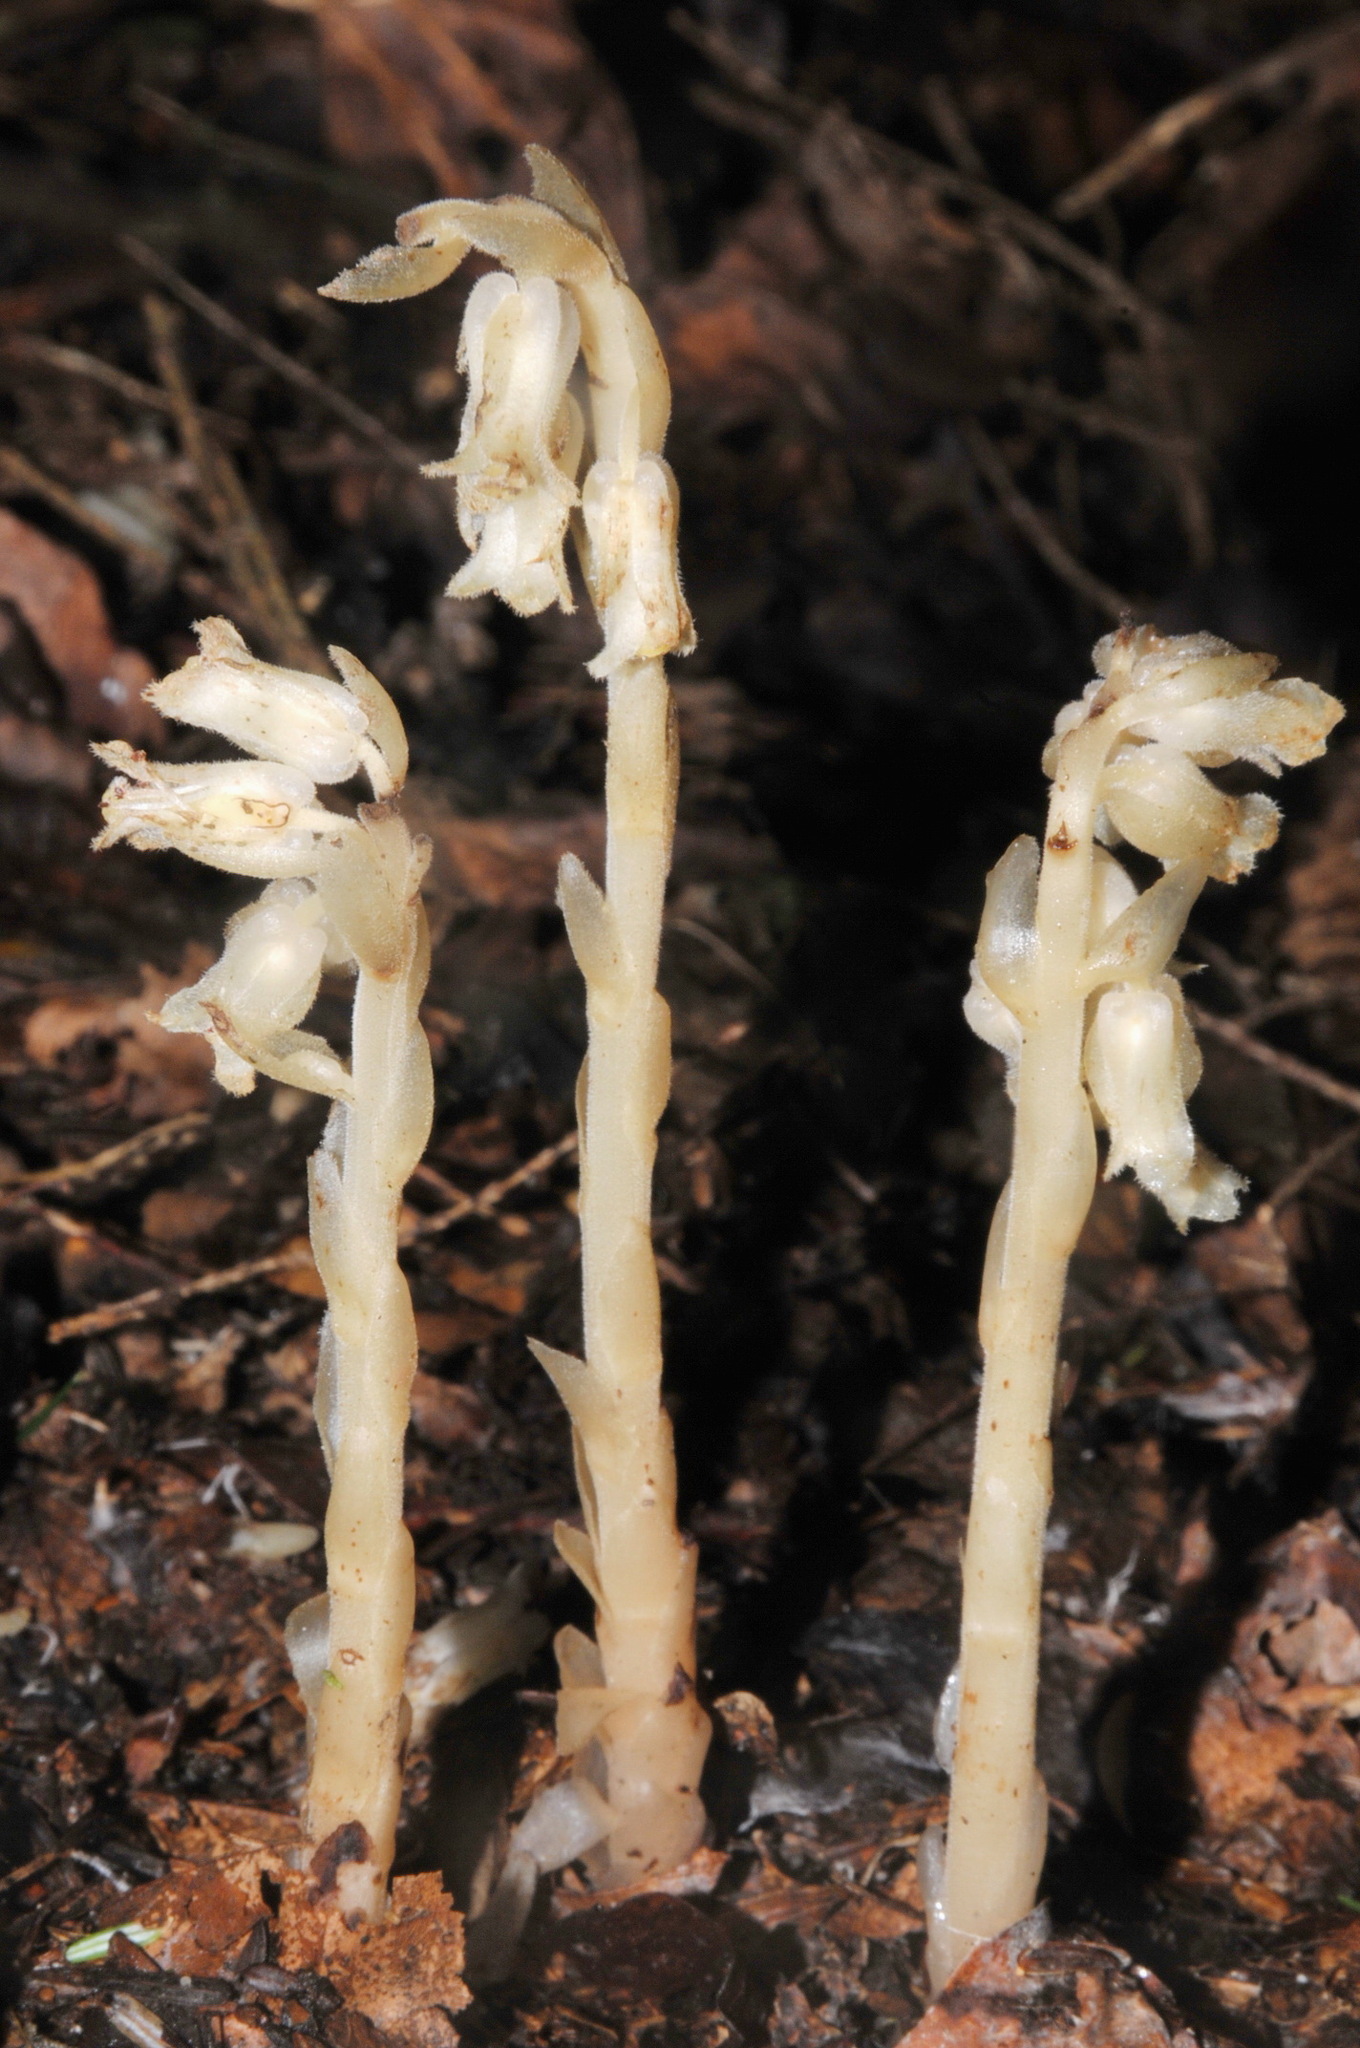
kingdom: Plantae
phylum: Tracheophyta
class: Magnoliopsida
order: Ericales
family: Ericaceae
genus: Hypopitys
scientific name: Hypopitys monotropa
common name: Yellow bird's-nest
